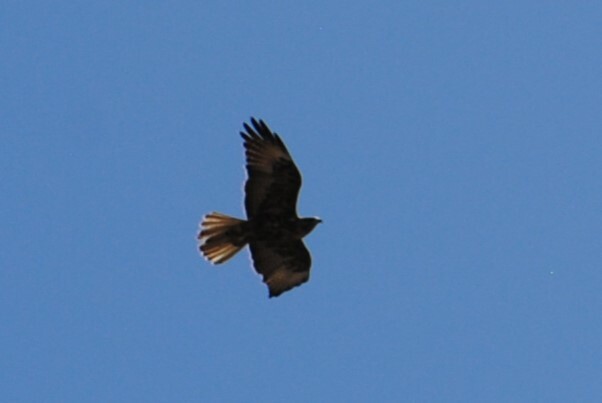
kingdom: Animalia
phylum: Chordata
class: Aves
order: Accipitriformes
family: Accipitridae
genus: Buteo
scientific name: Buteo galapagoensis
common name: Galapagos hawk
